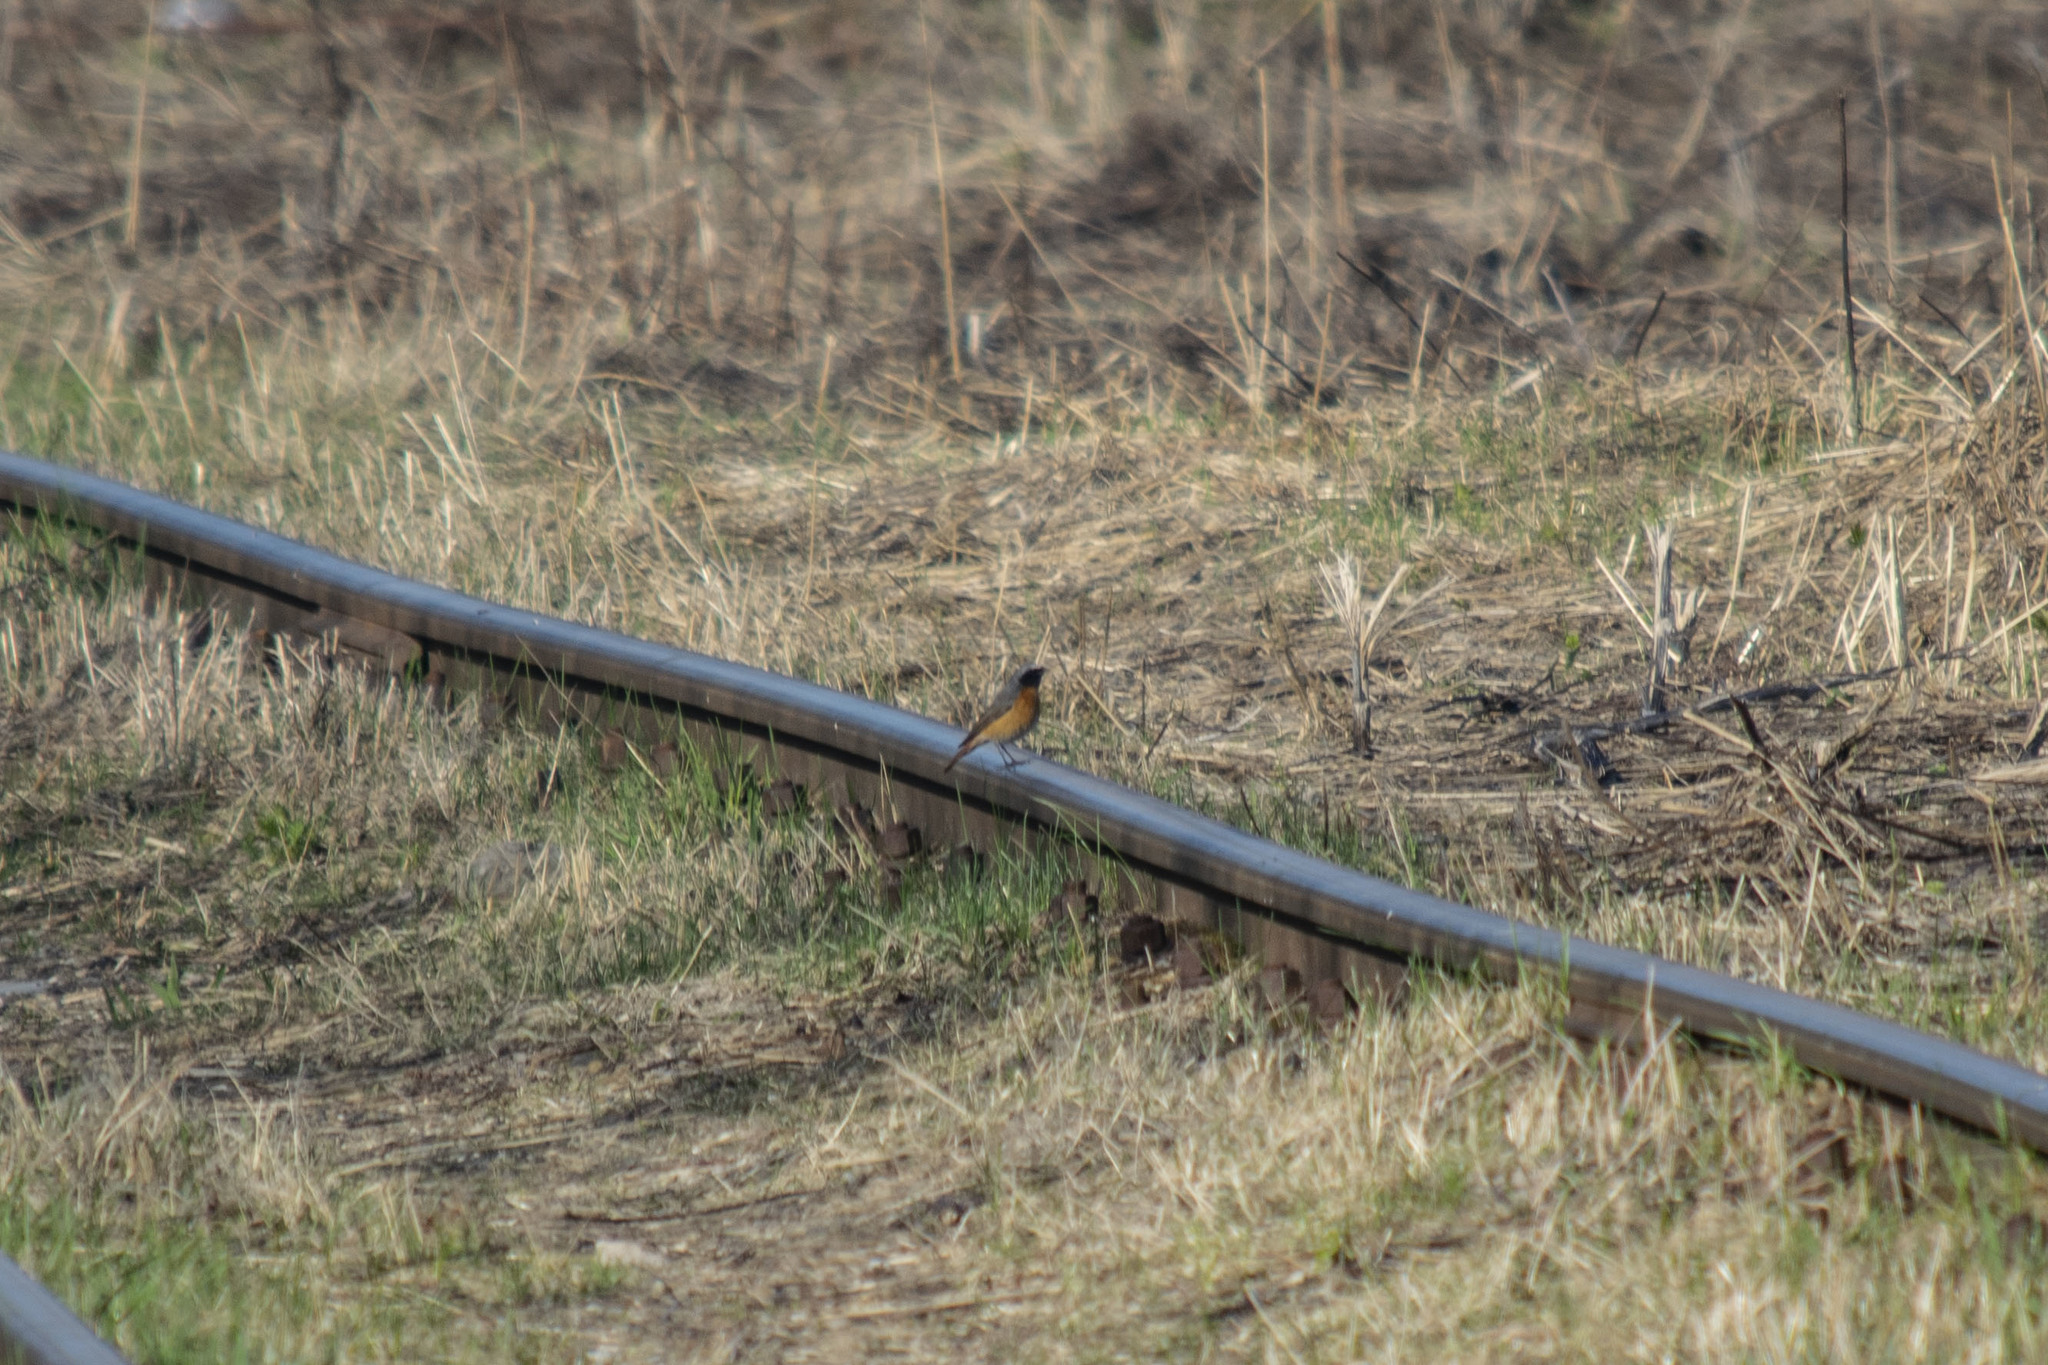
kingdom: Animalia
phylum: Chordata
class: Aves
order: Passeriformes
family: Muscicapidae
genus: Phoenicurus
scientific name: Phoenicurus phoenicurus
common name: Common redstart
